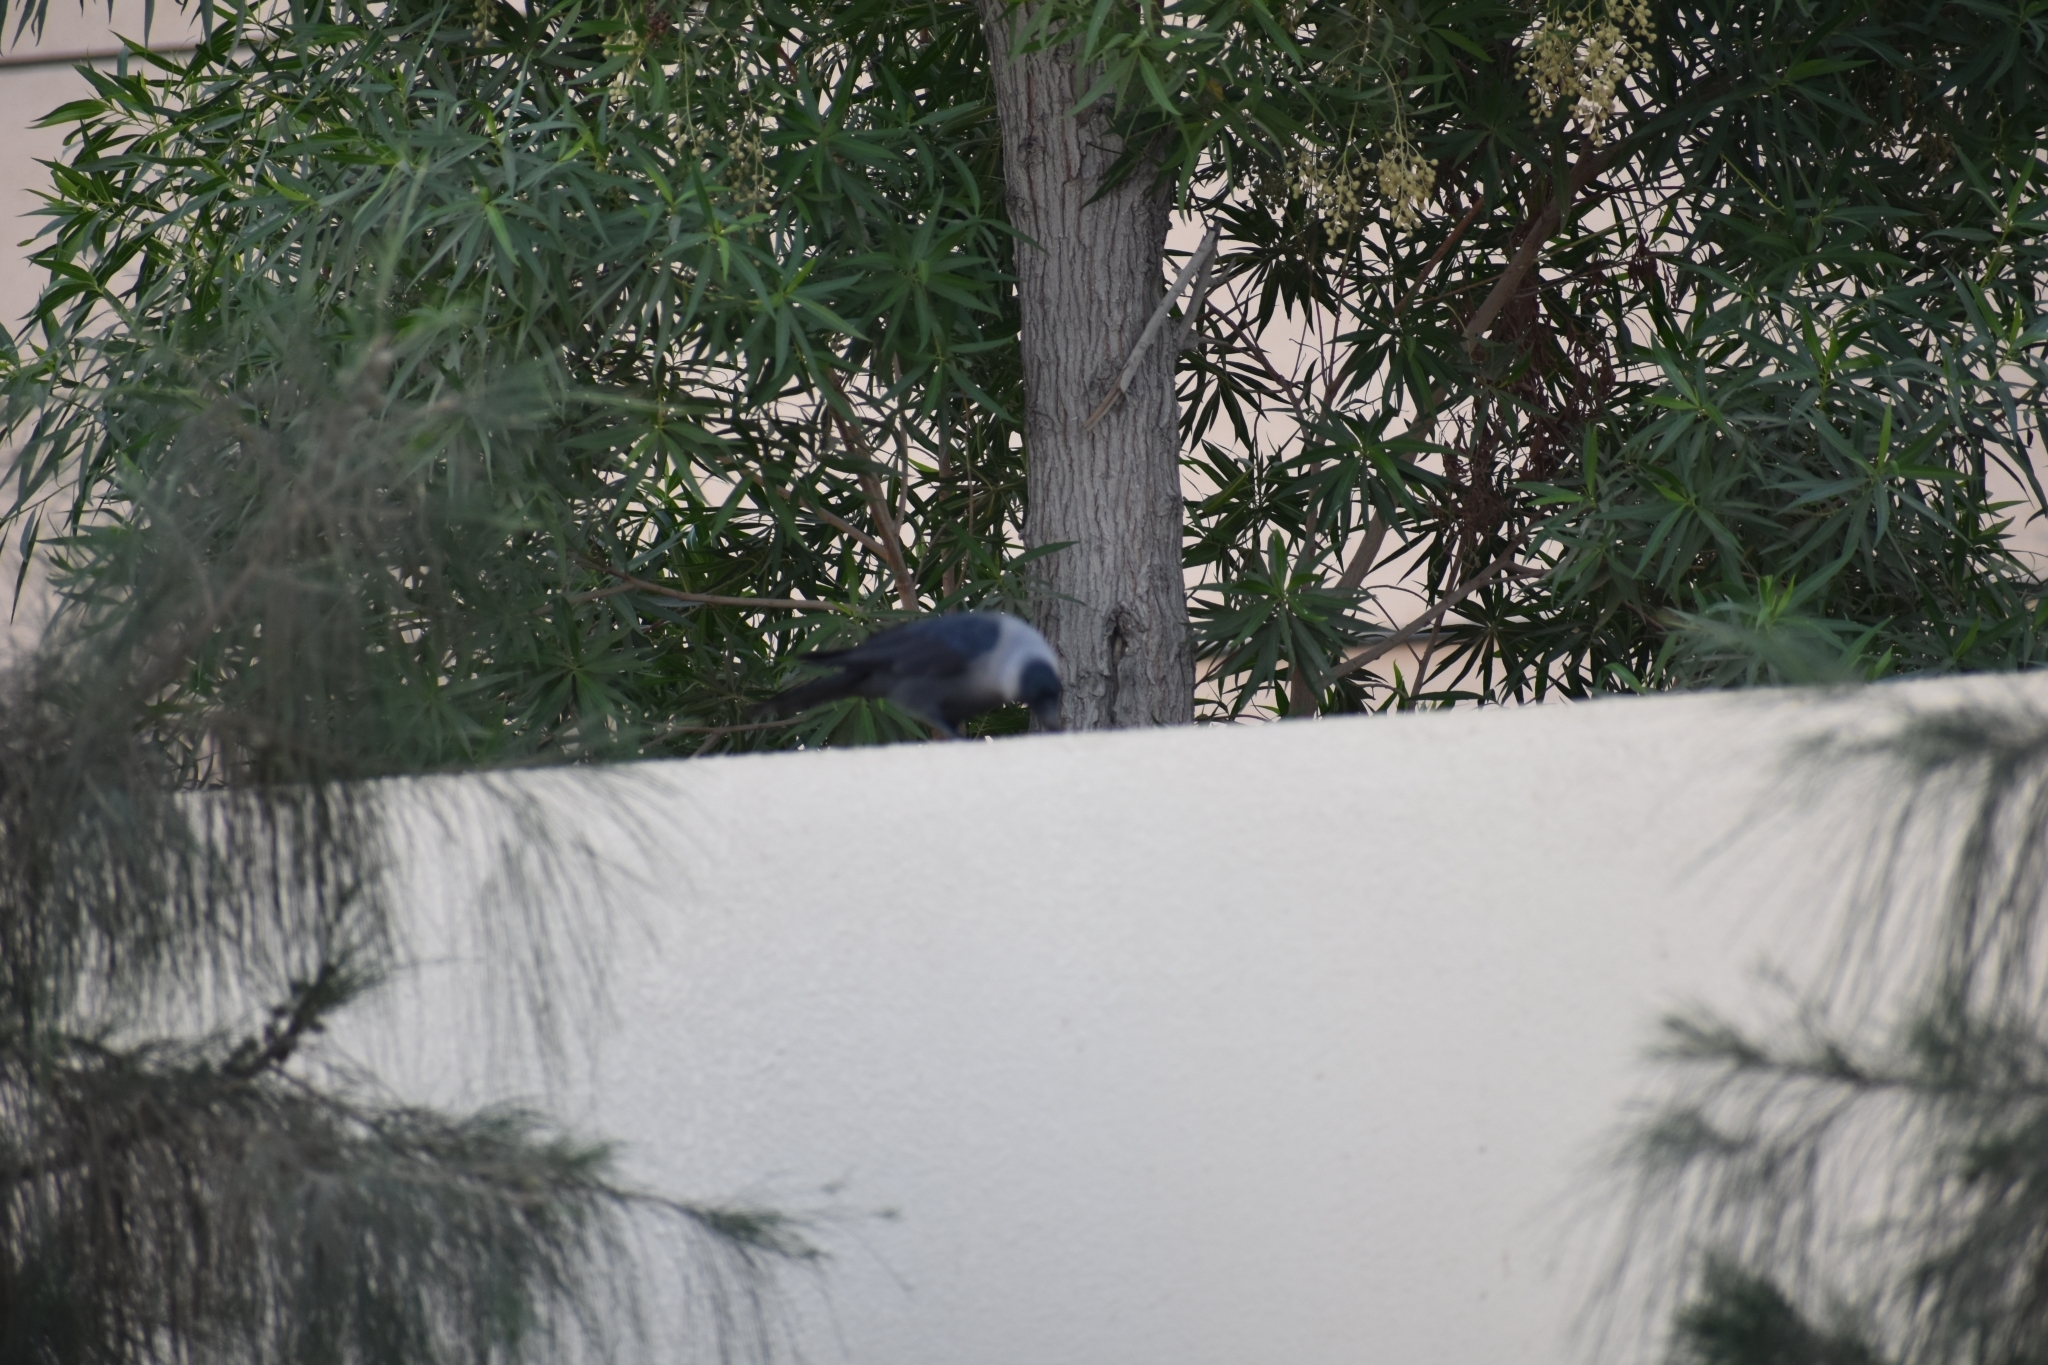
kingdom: Animalia
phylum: Chordata
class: Aves
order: Passeriformes
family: Corvidae
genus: Corvus
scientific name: Corvus splendens
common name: House crow
